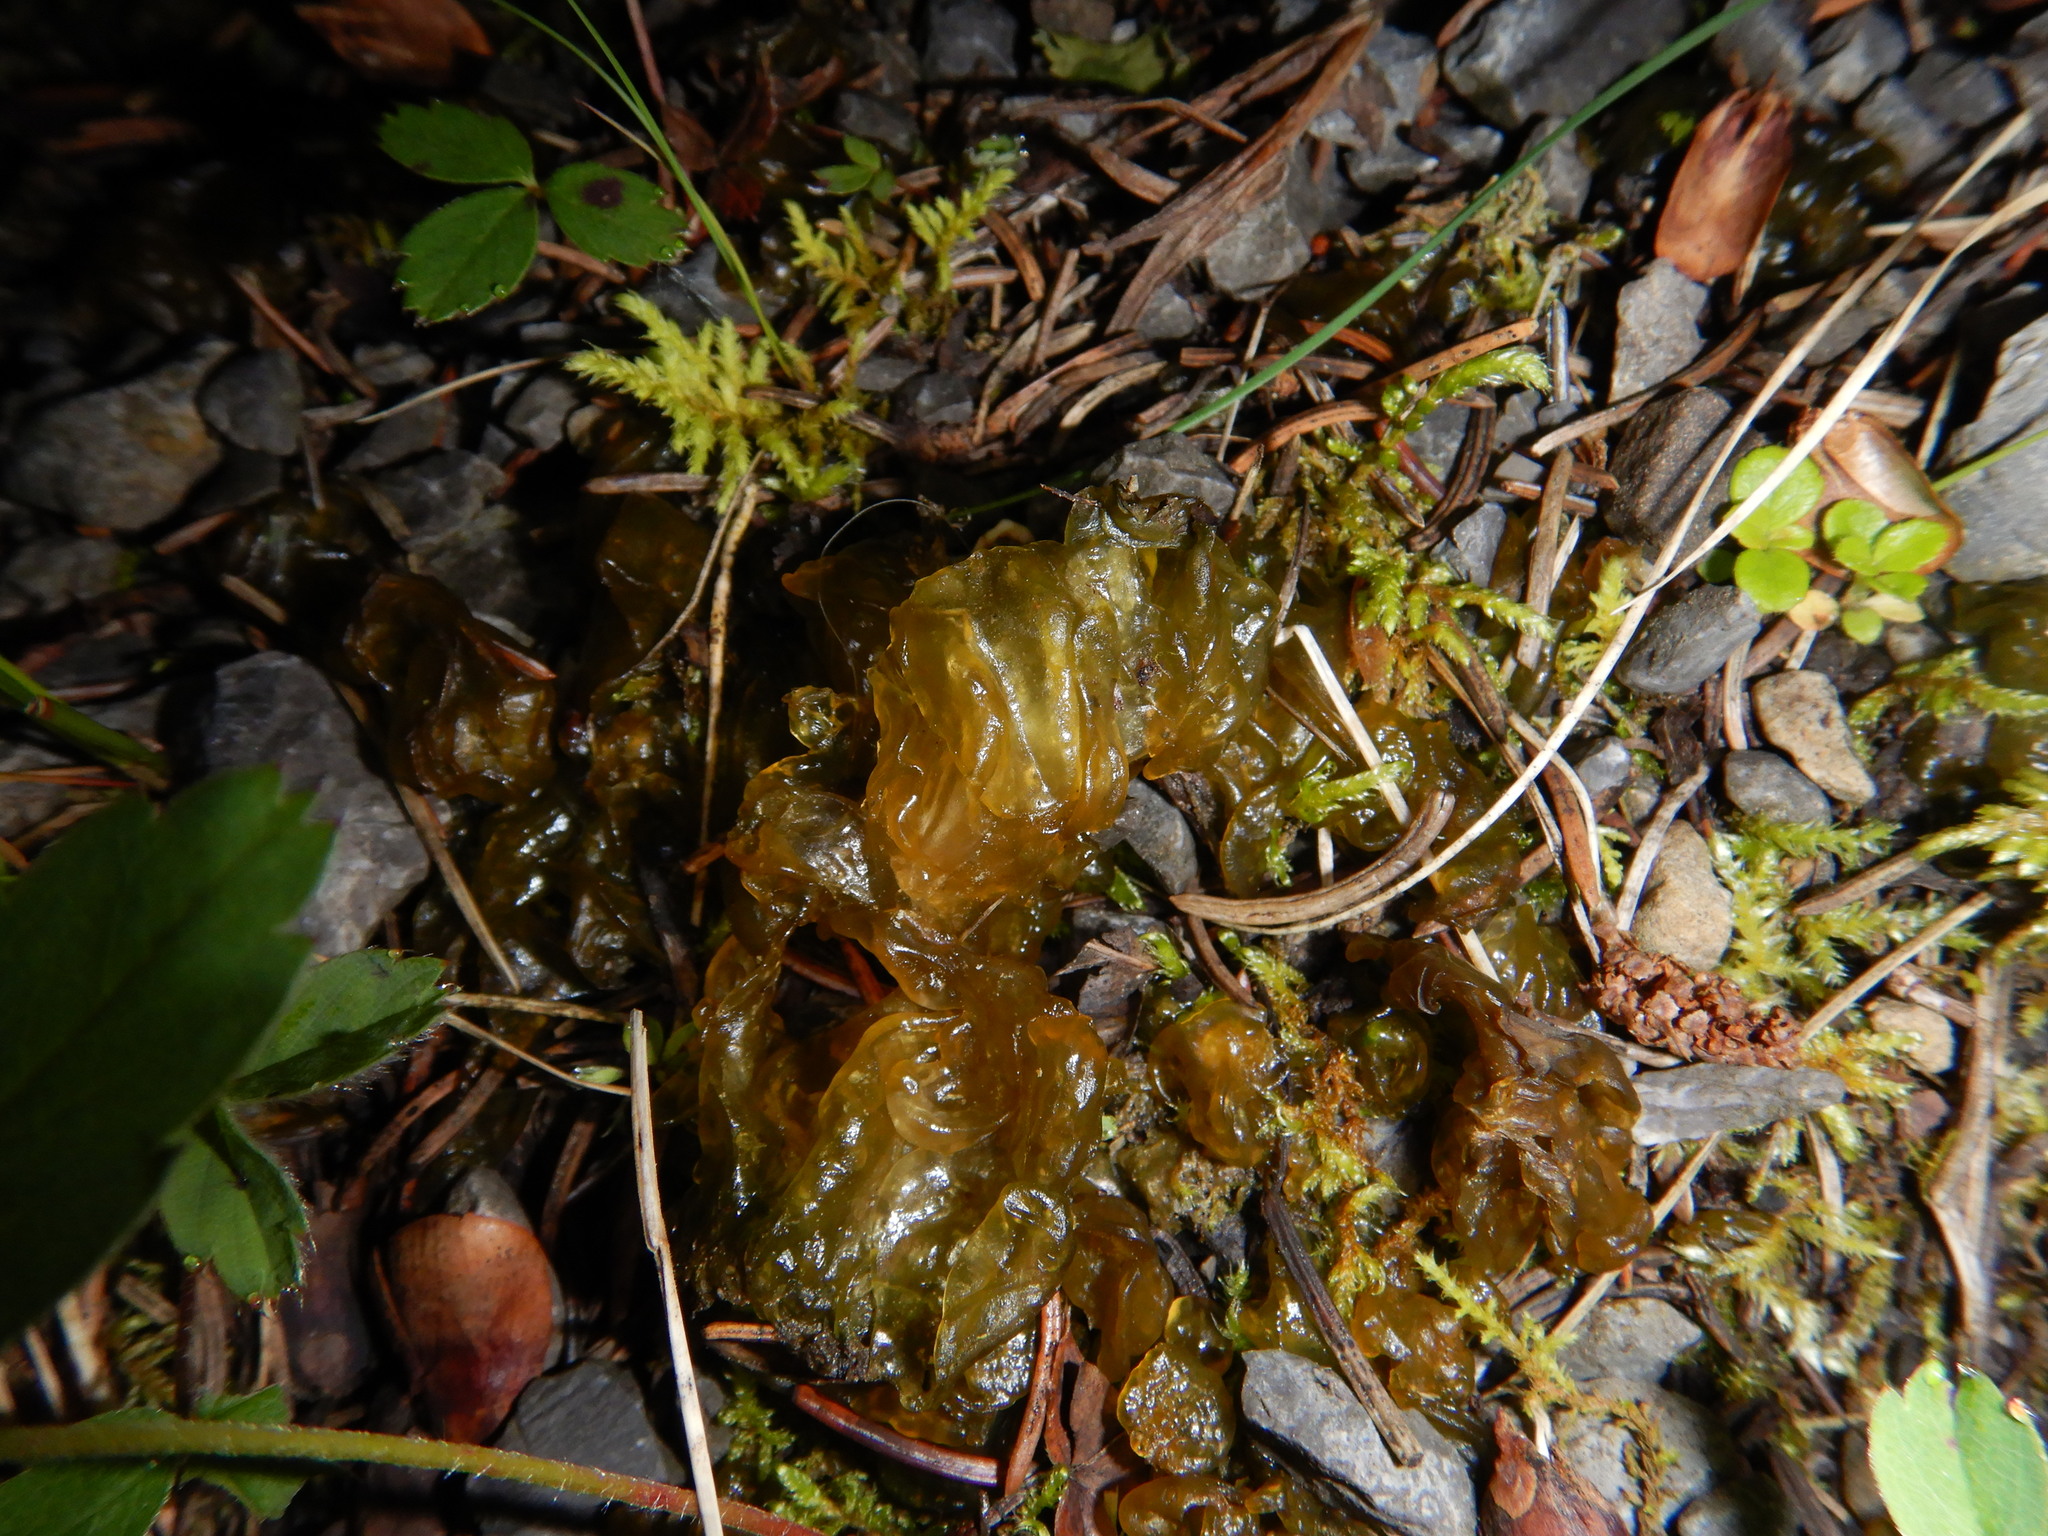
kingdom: Bacteria
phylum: Cyanobacteria
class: Cyanobacteriia
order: Cyanobacteriales
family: Nostocaceae
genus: Nostoc
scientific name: Nostoc commune
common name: Star jelly
